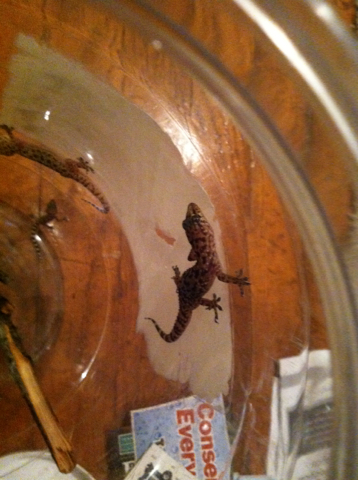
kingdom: Animalia
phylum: Chordata
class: Squamata
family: Gekkonidae
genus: Hemidactylus
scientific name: Hemidactylus turcicus
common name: Turkish gecko
